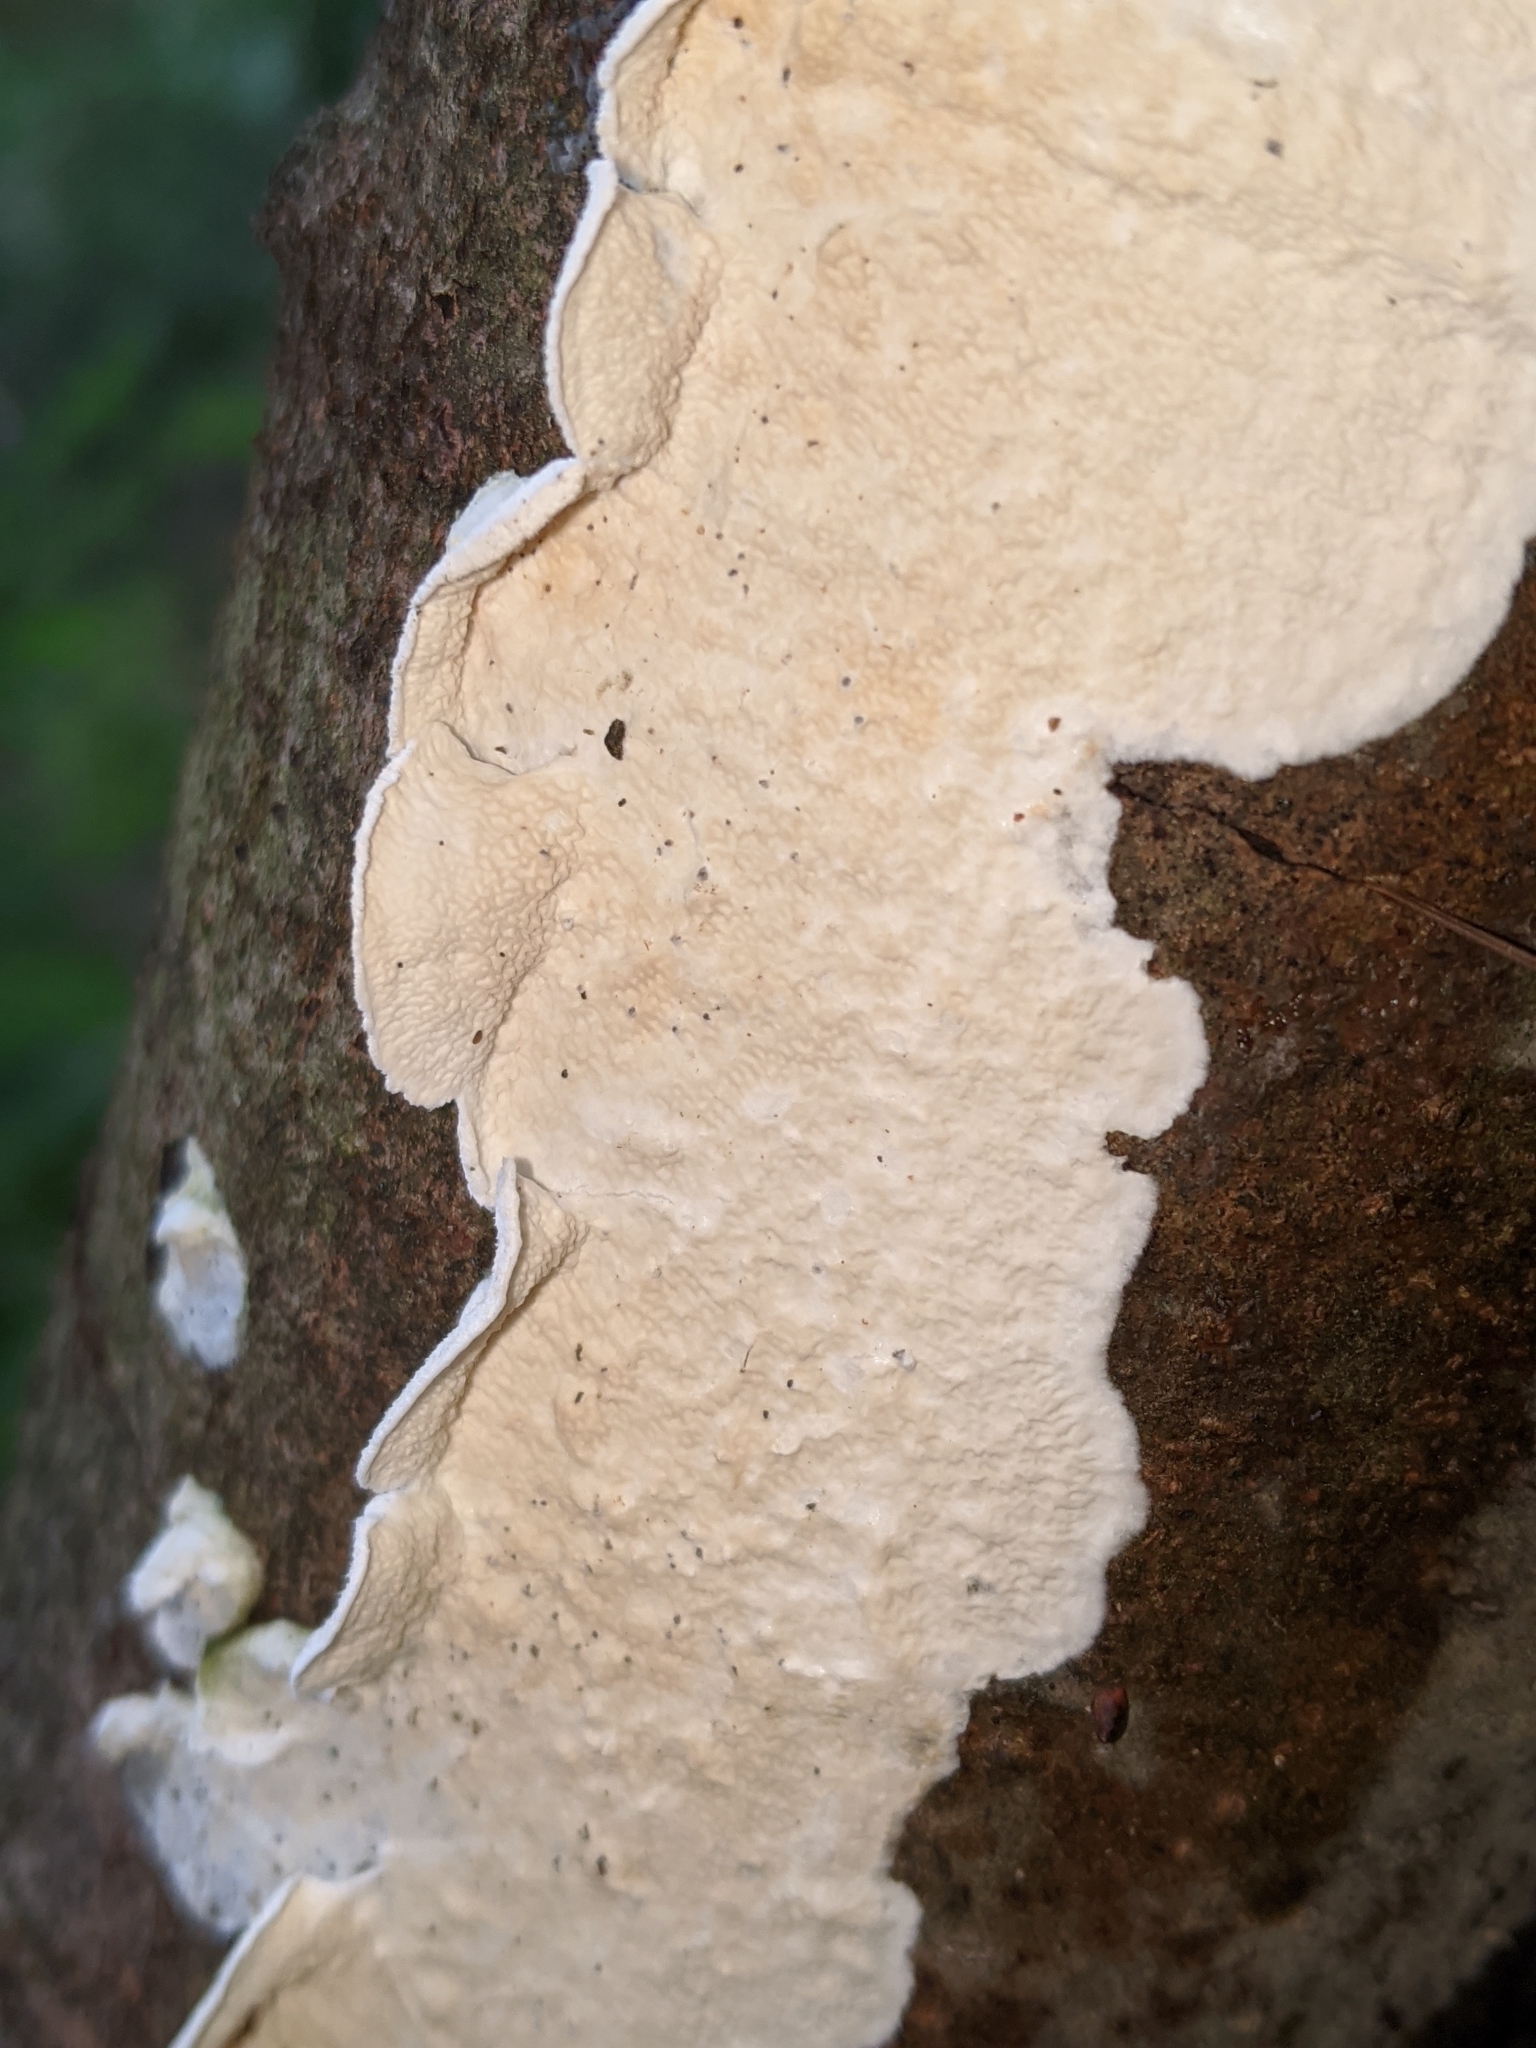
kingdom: Fungi
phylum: Basidiomycota
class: Agaricomycetes
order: Polyporales
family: Irpicaceae
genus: Byssomerulius
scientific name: Byssomerulius corium
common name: Netted crust
